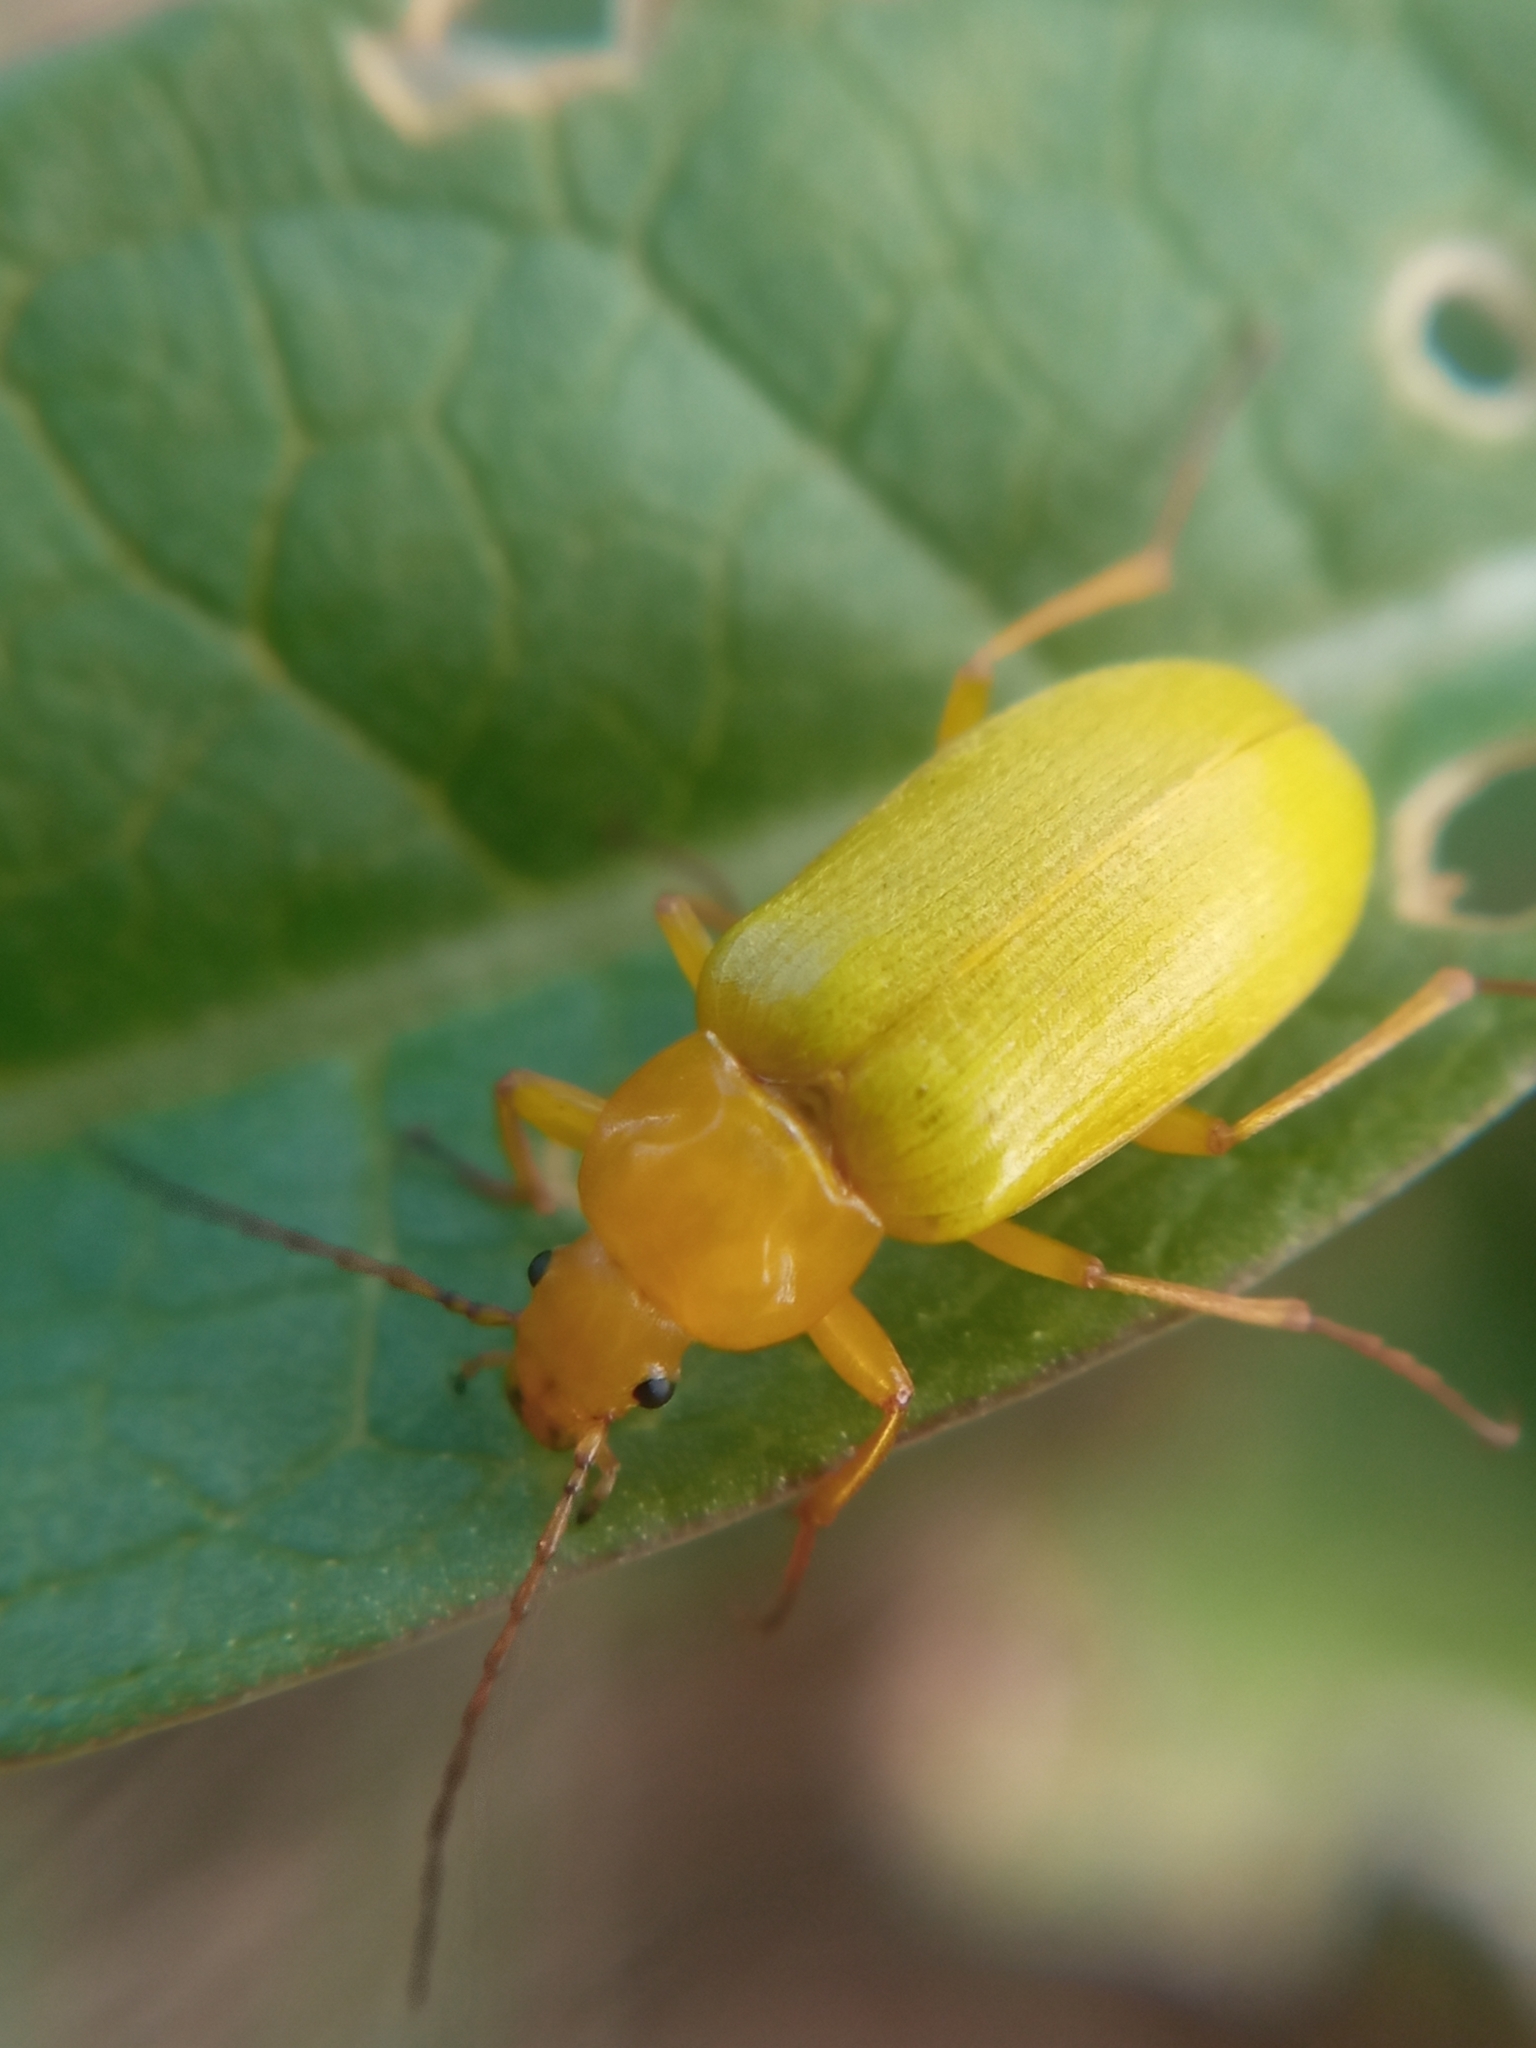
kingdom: Animalia
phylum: Arthropoda
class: Insecta
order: Coleoptera
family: Tenebrionidae
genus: Cteniopus
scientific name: Cteniopus sulphureus
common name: Sulphur beetle
